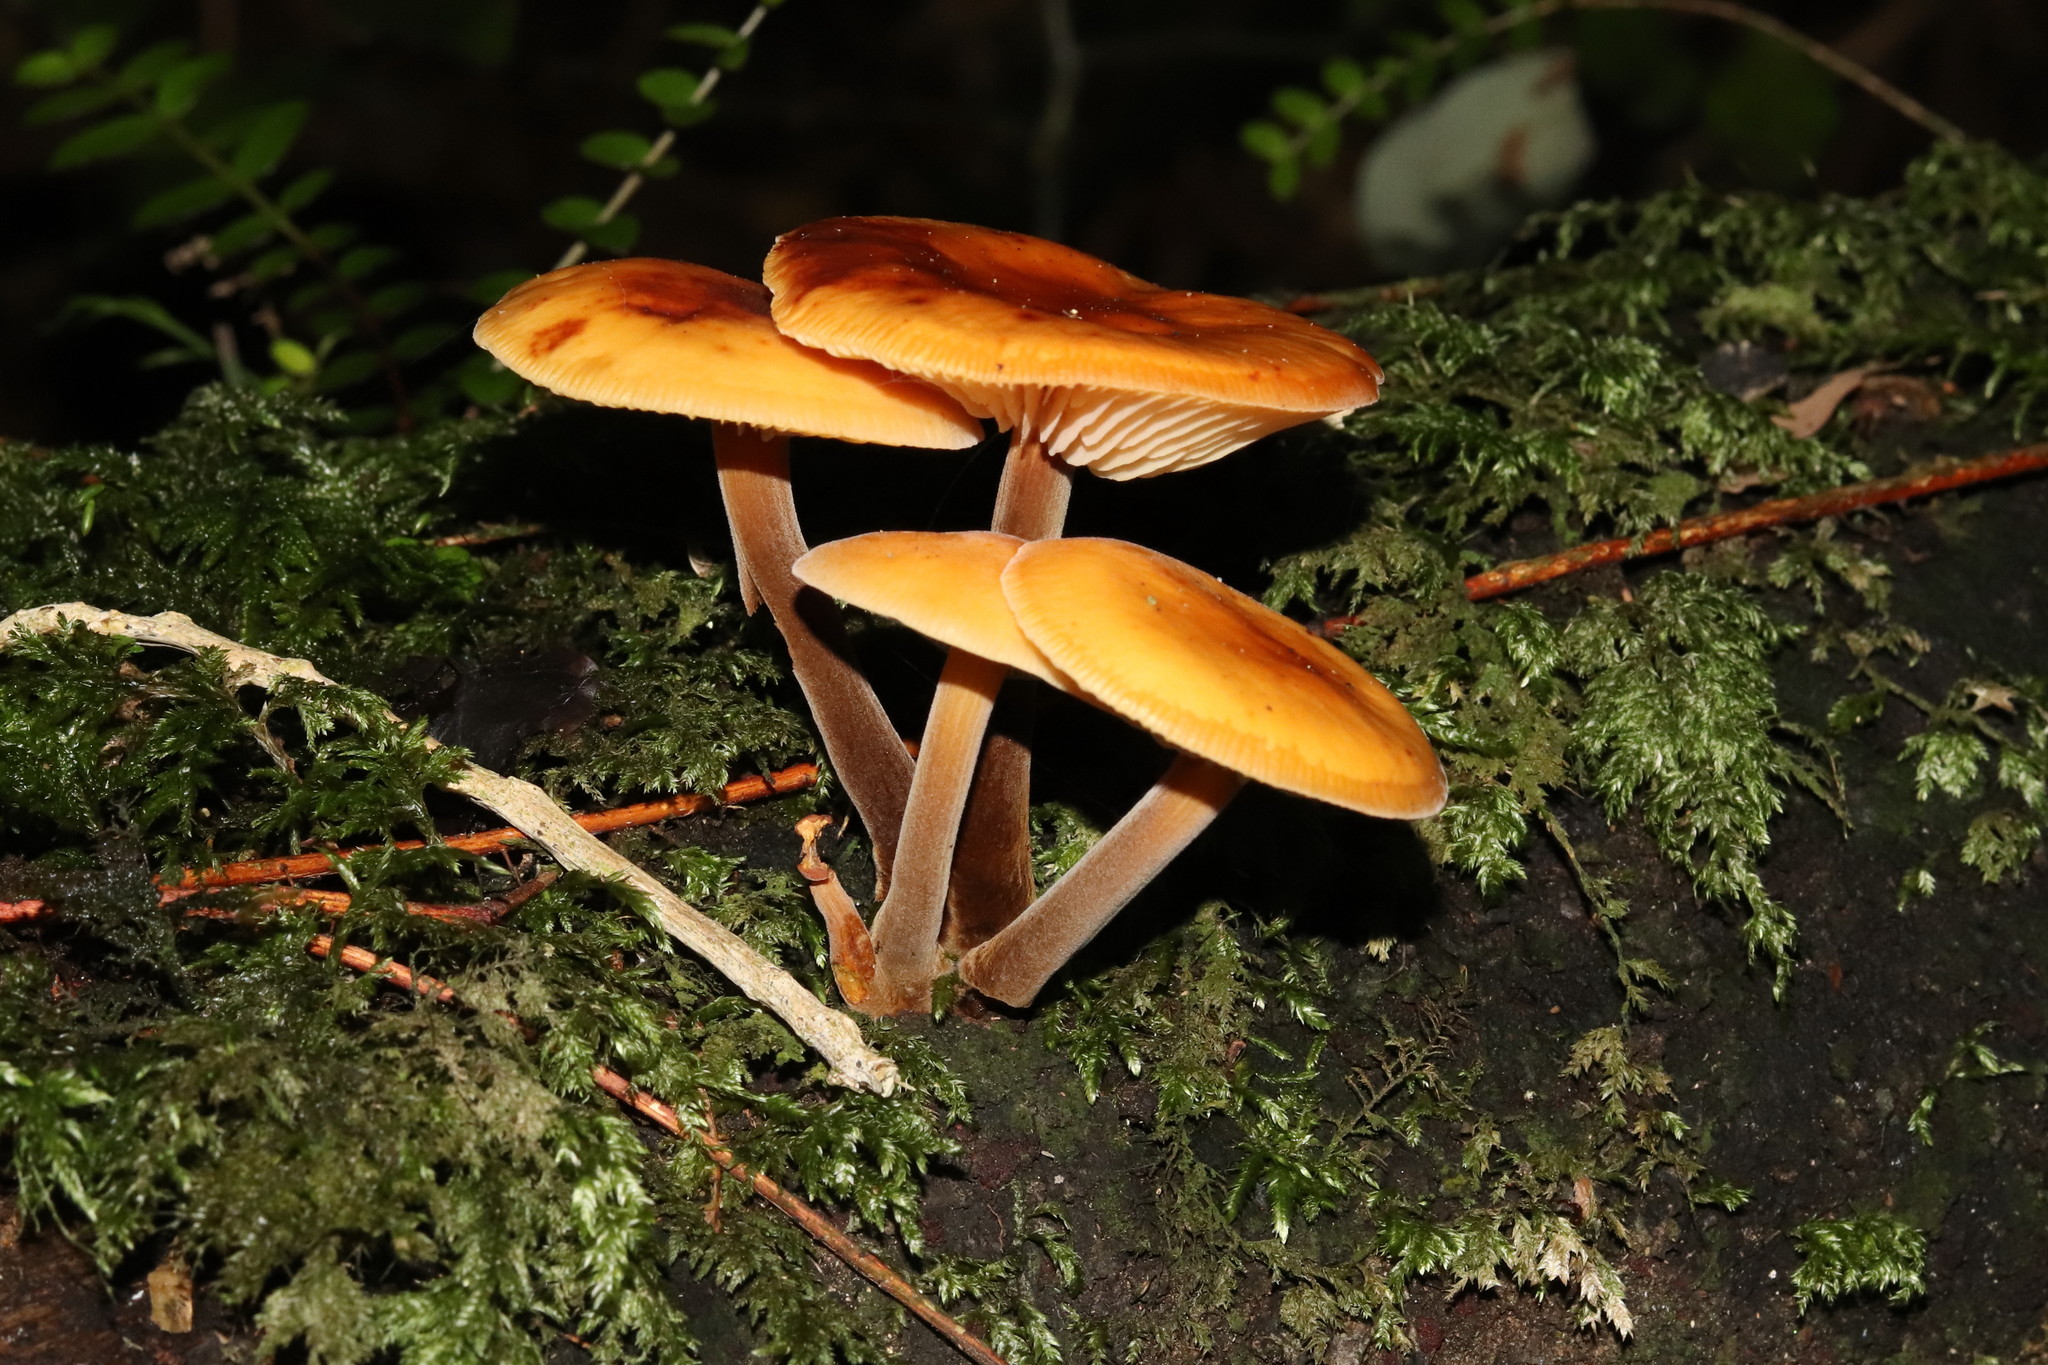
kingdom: Fungi
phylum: Basidiomycota
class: Agaricomycetes
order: Agaricales
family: Physalacriaceae
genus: Flammulina
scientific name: Flammulina velutipes
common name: Velvet shank
